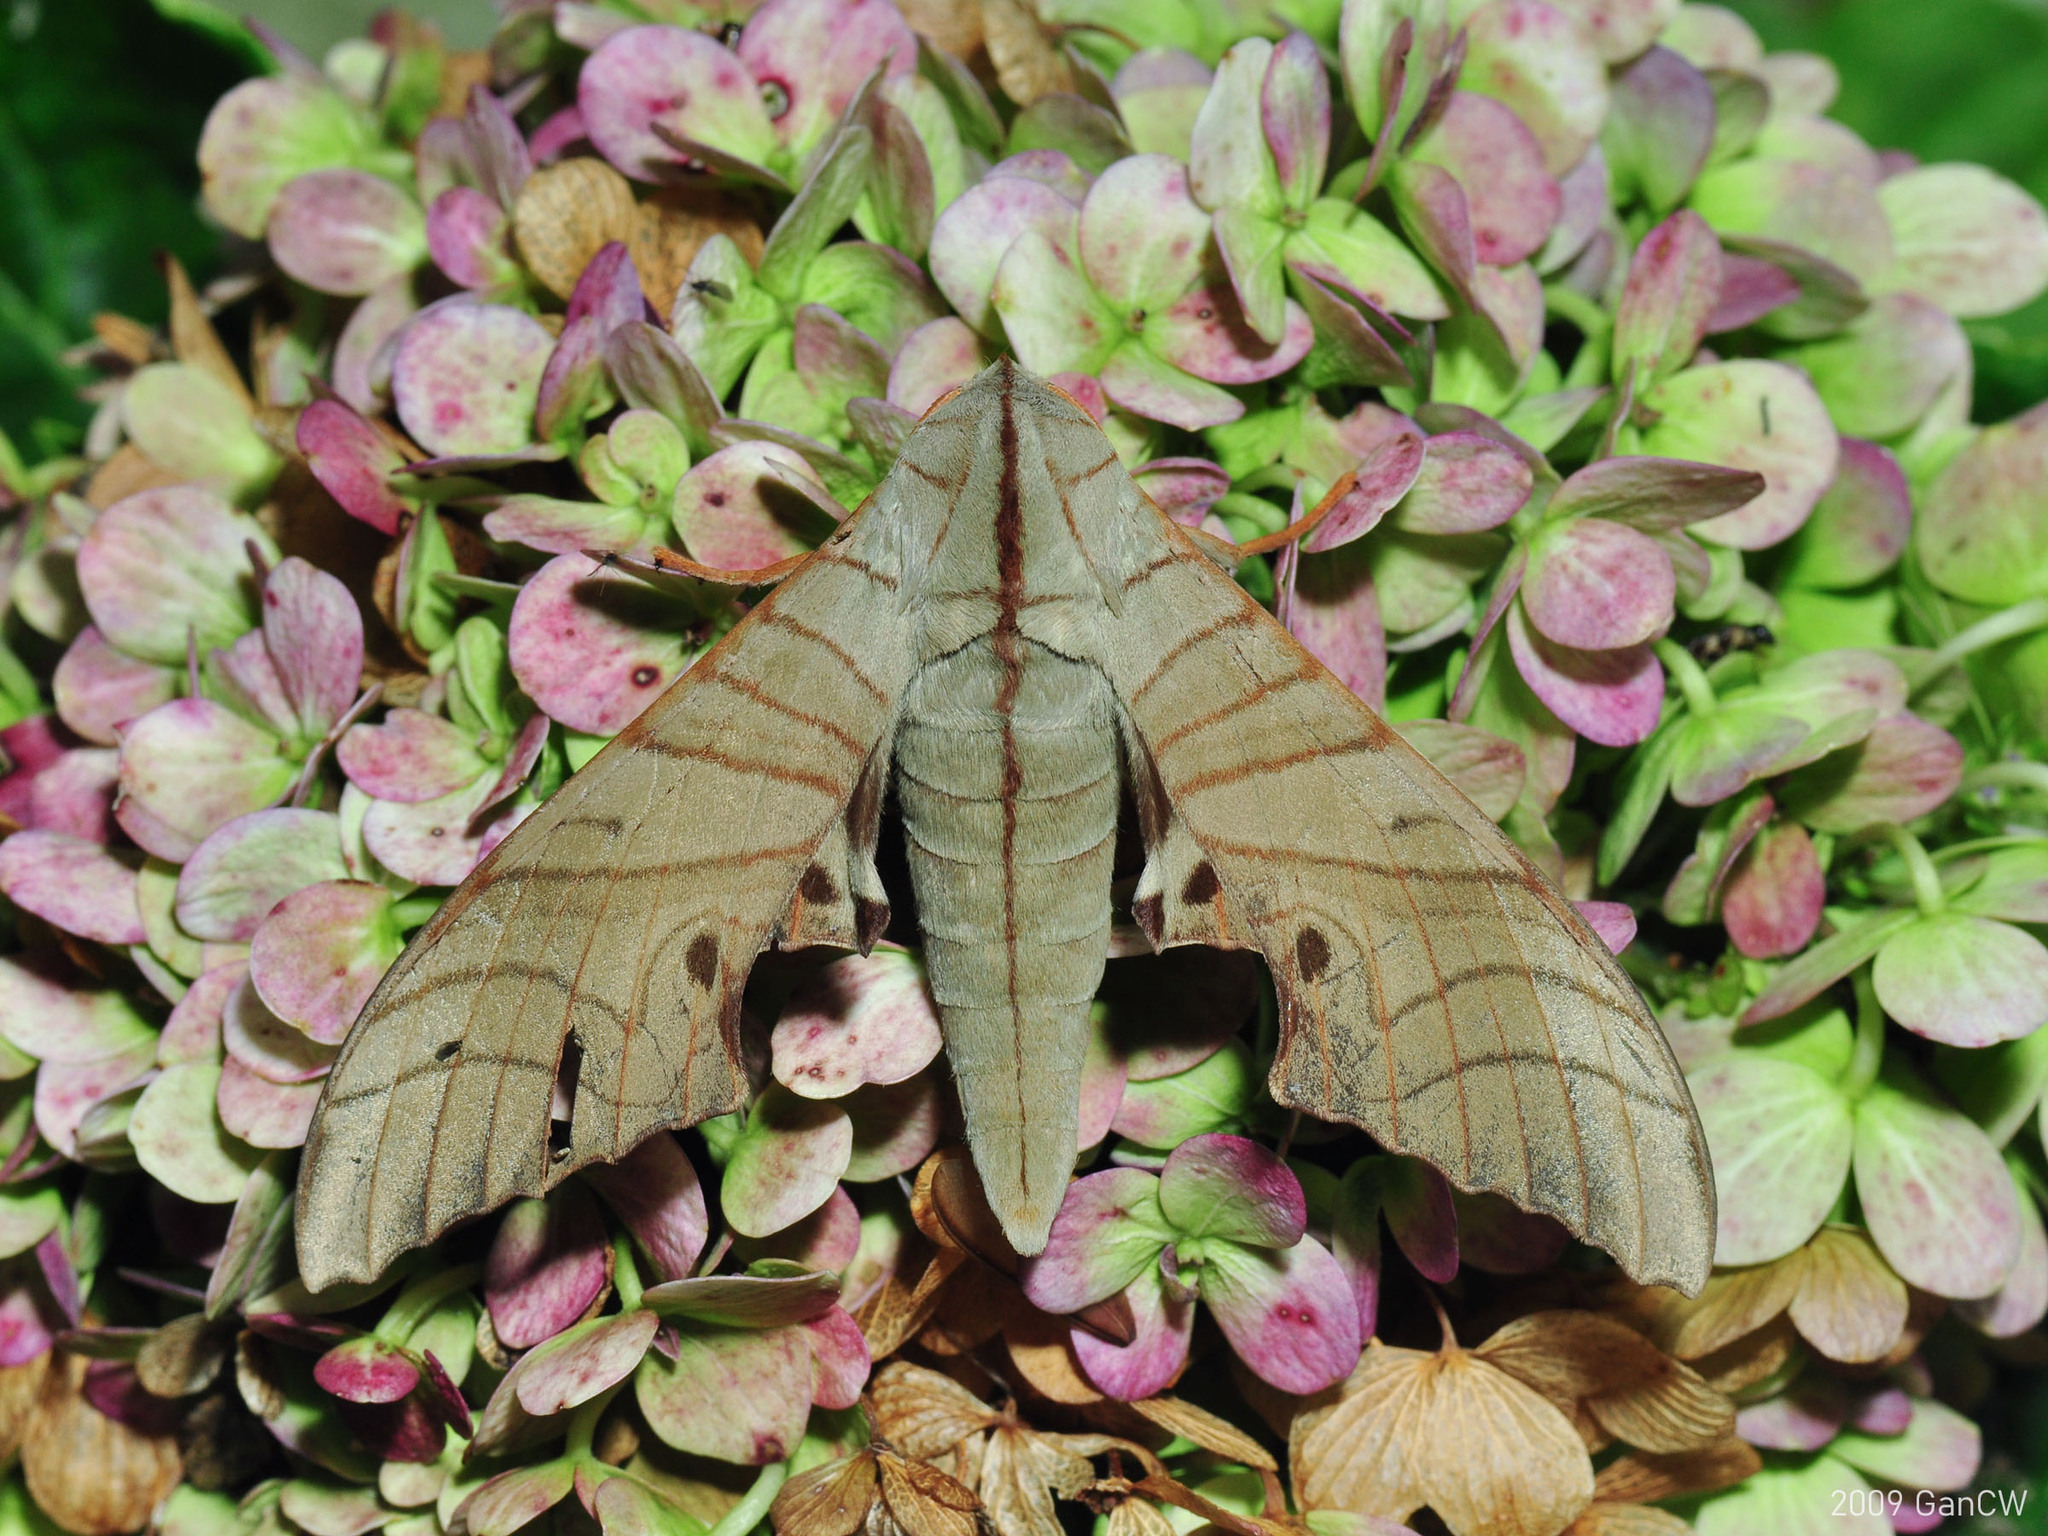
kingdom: Animalia
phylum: Arthropoda
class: Insecta
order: Lepidoptera
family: Sphingidae
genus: Marumba
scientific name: Marumba juvencus
